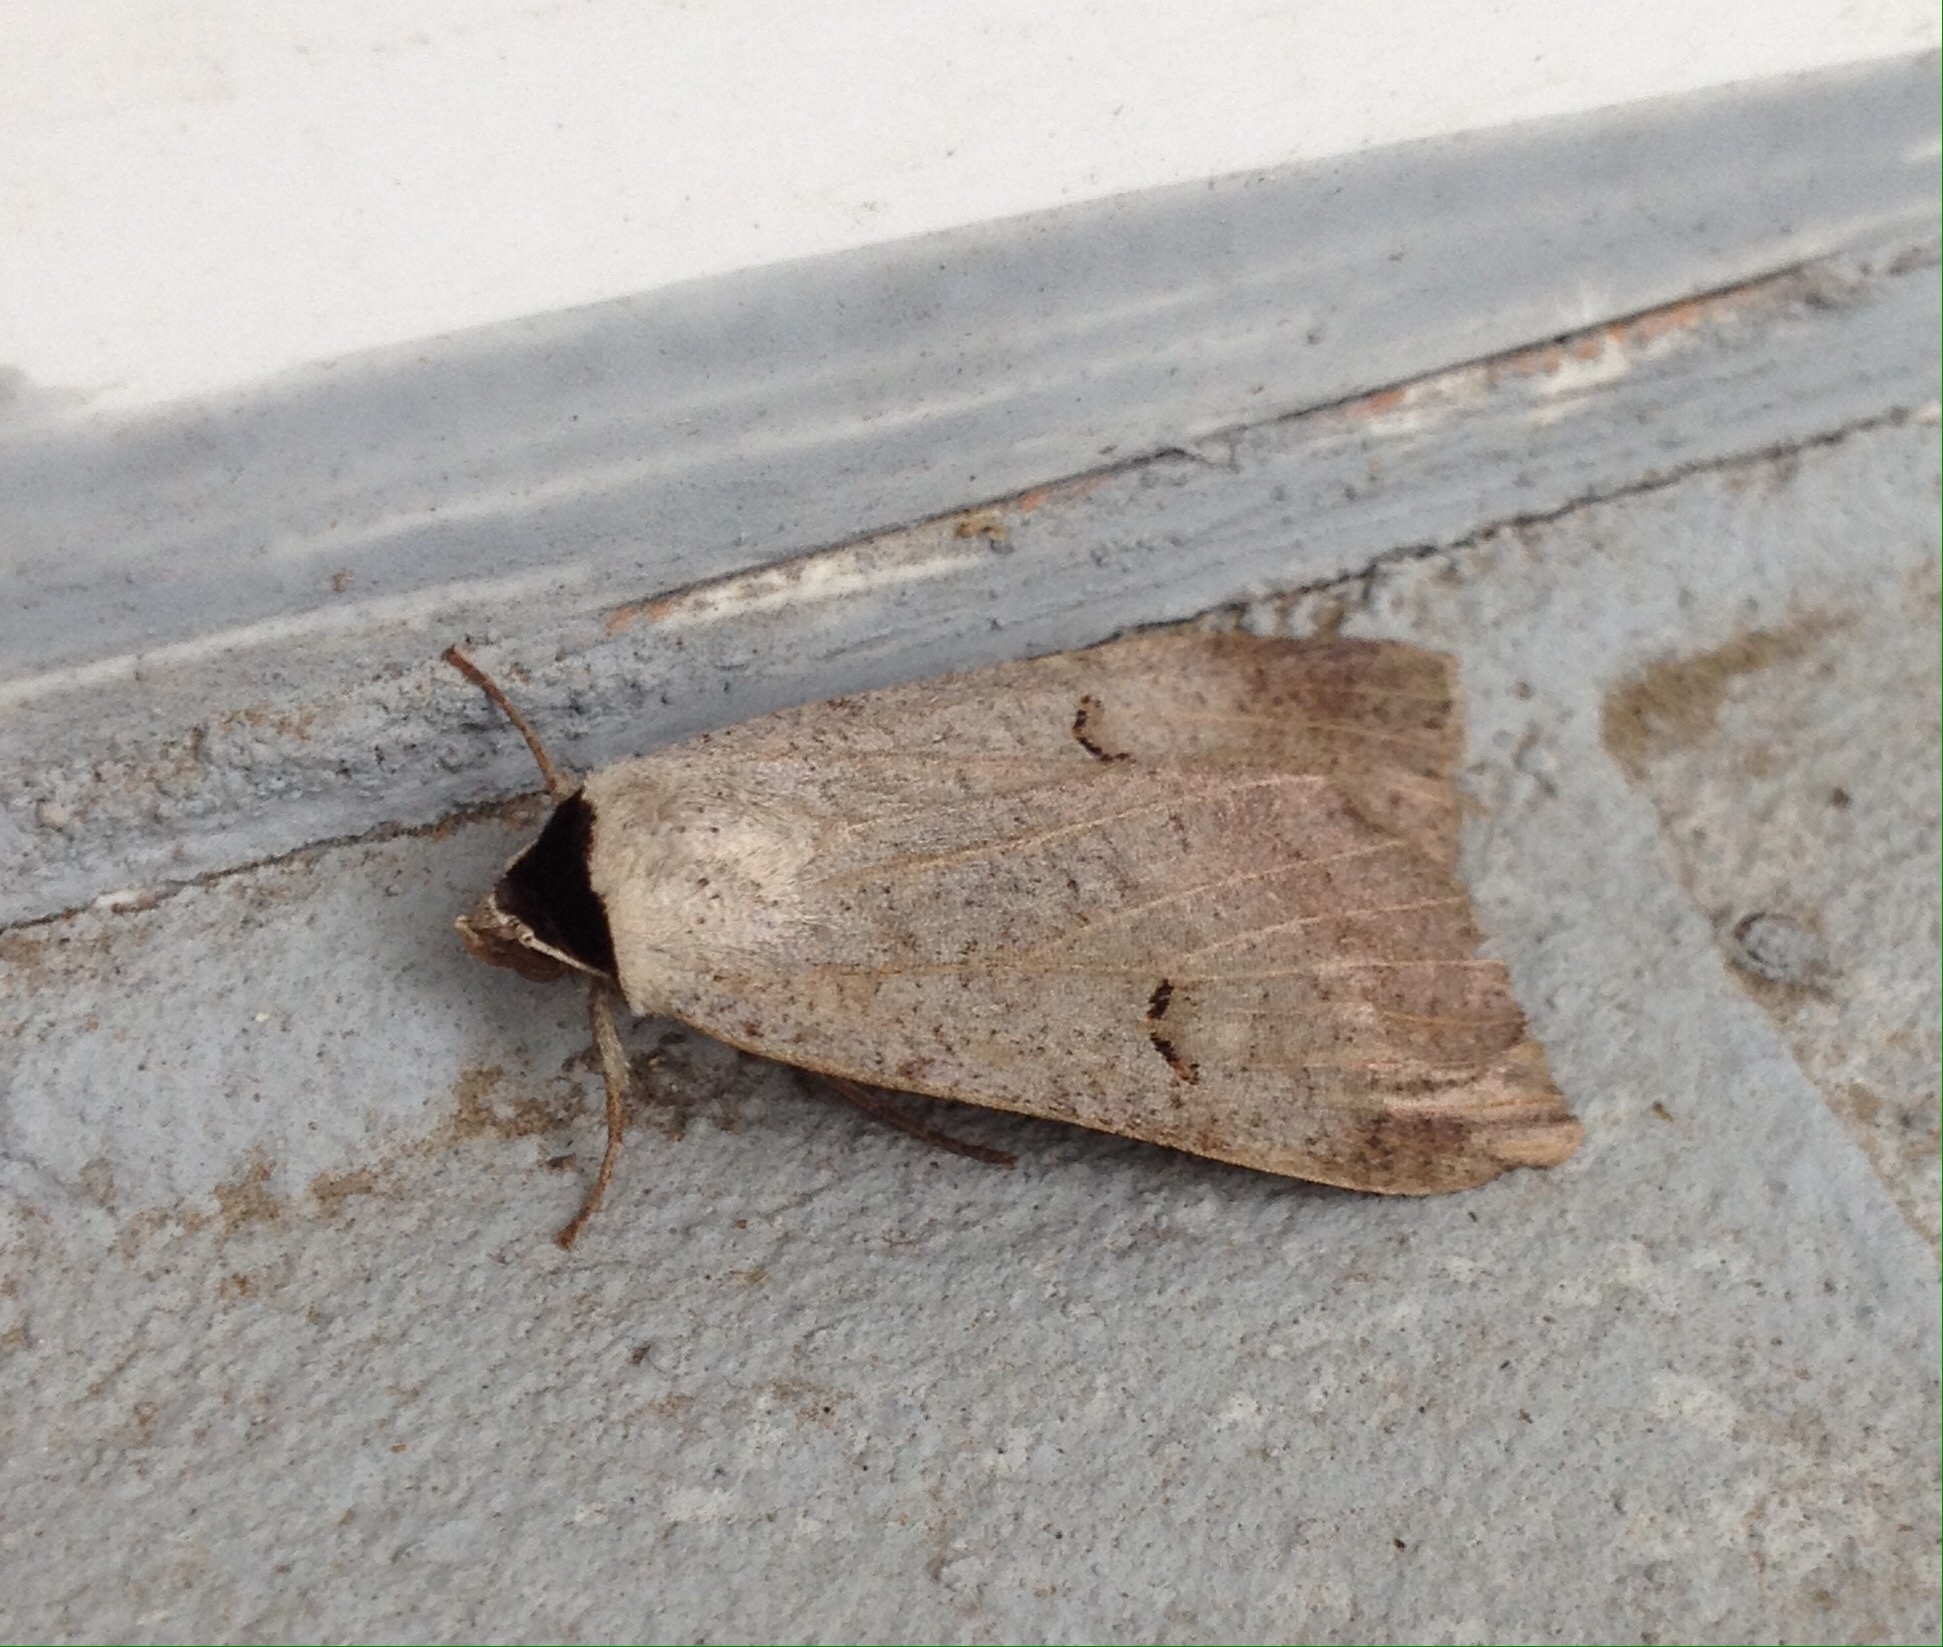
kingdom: Animalia
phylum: Arthropoda
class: Insecta
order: Lepidoptera
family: Erebidae
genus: Lygephila
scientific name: Lygephila craccae
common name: Scarce blackneck
